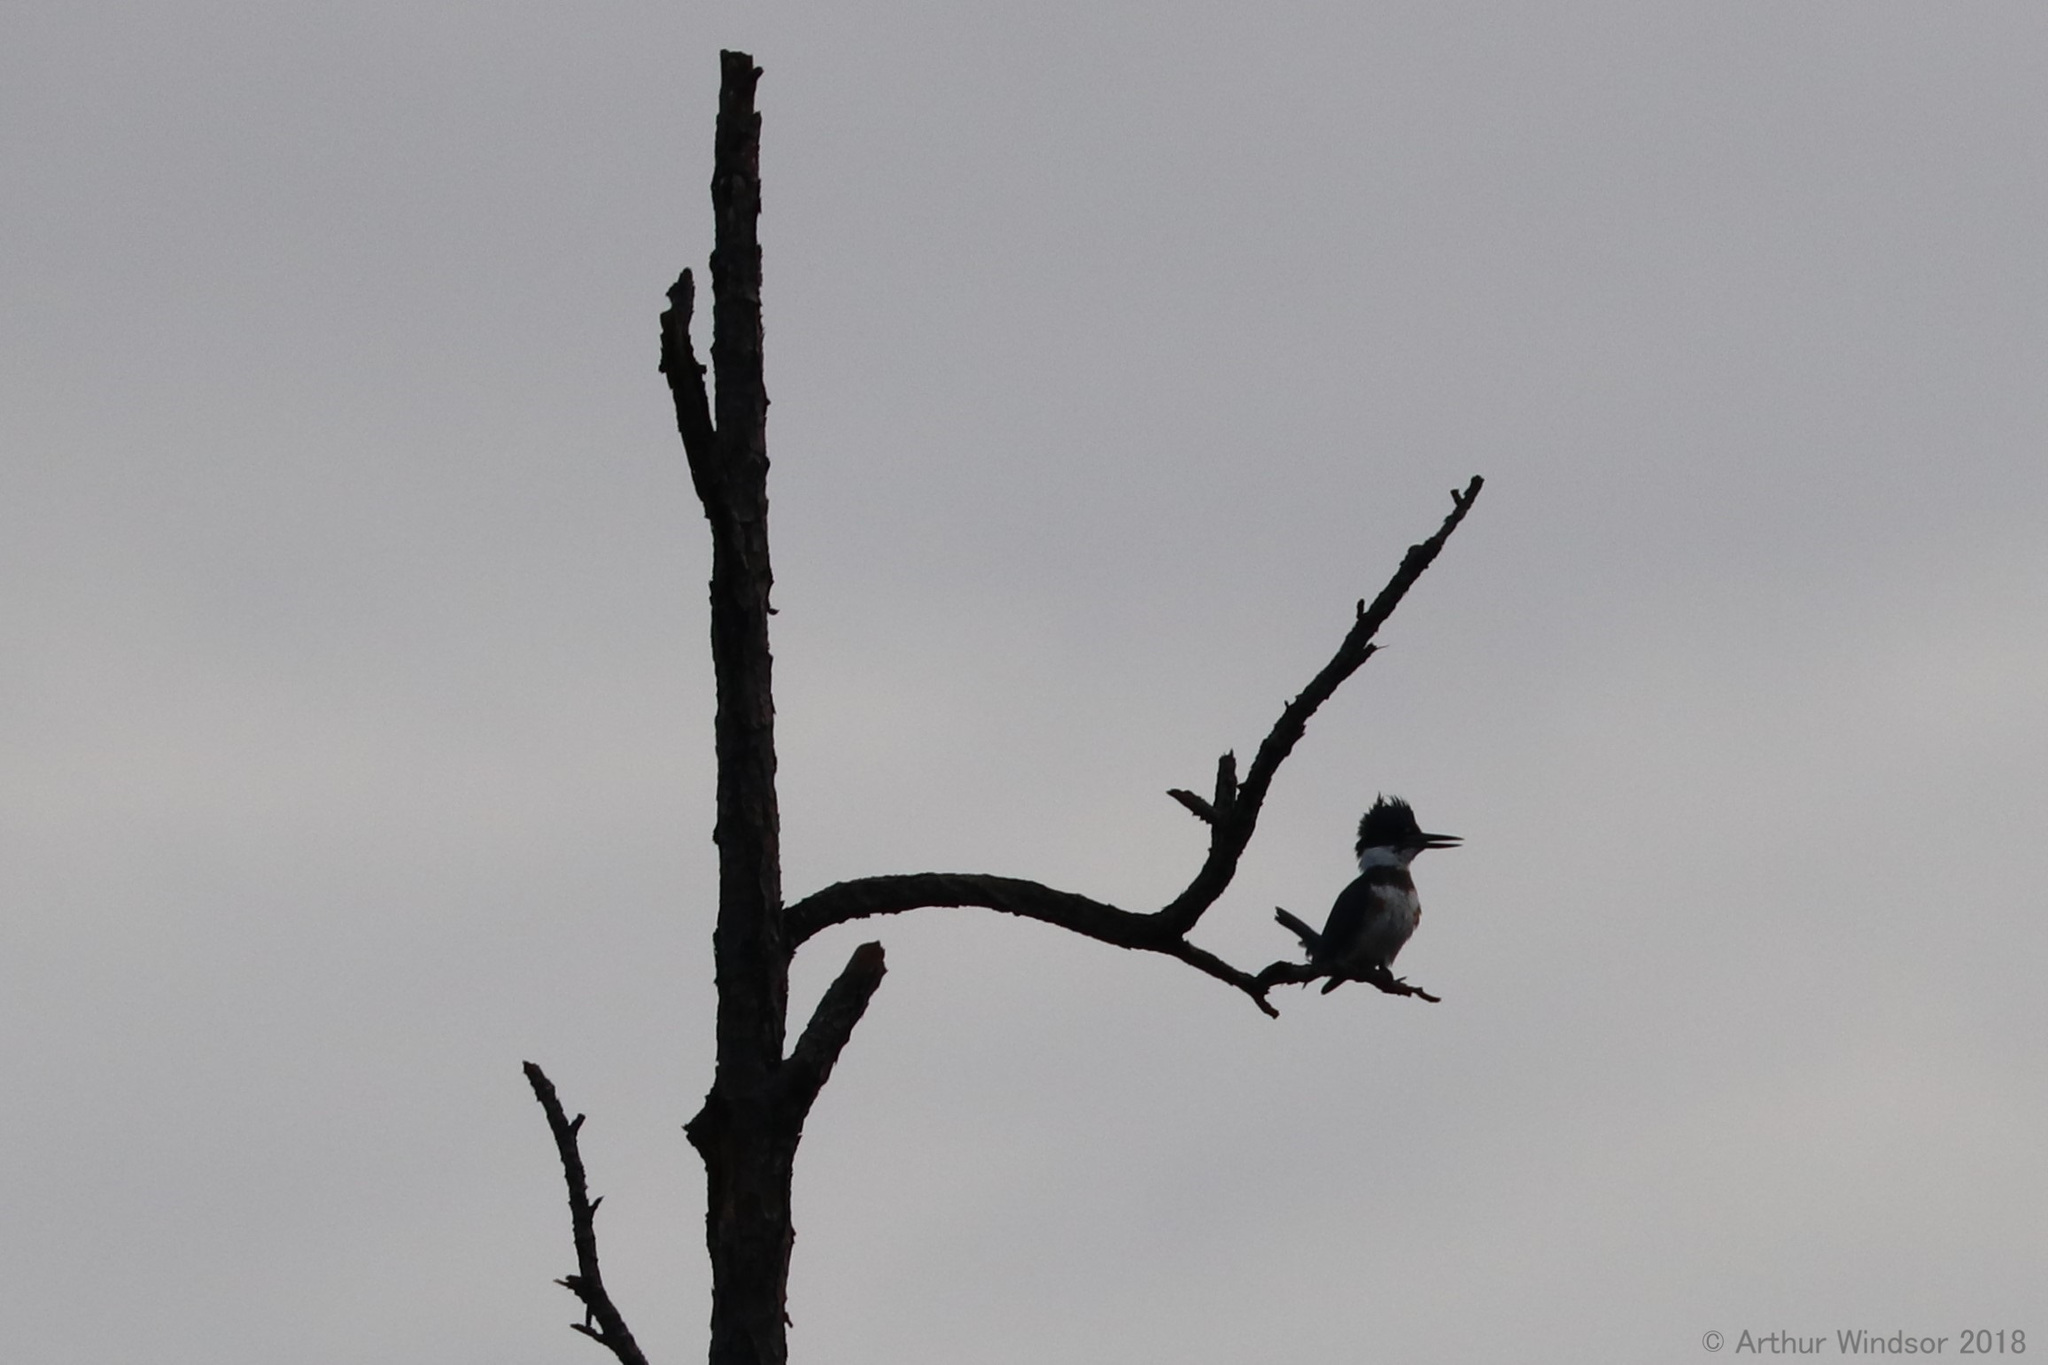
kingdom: Animalia
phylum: Chordata
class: Aves
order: Coraciiformes
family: Alcedinidae
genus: Megaceryle
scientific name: Megaceryle alcyon
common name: Belted kingfisher
